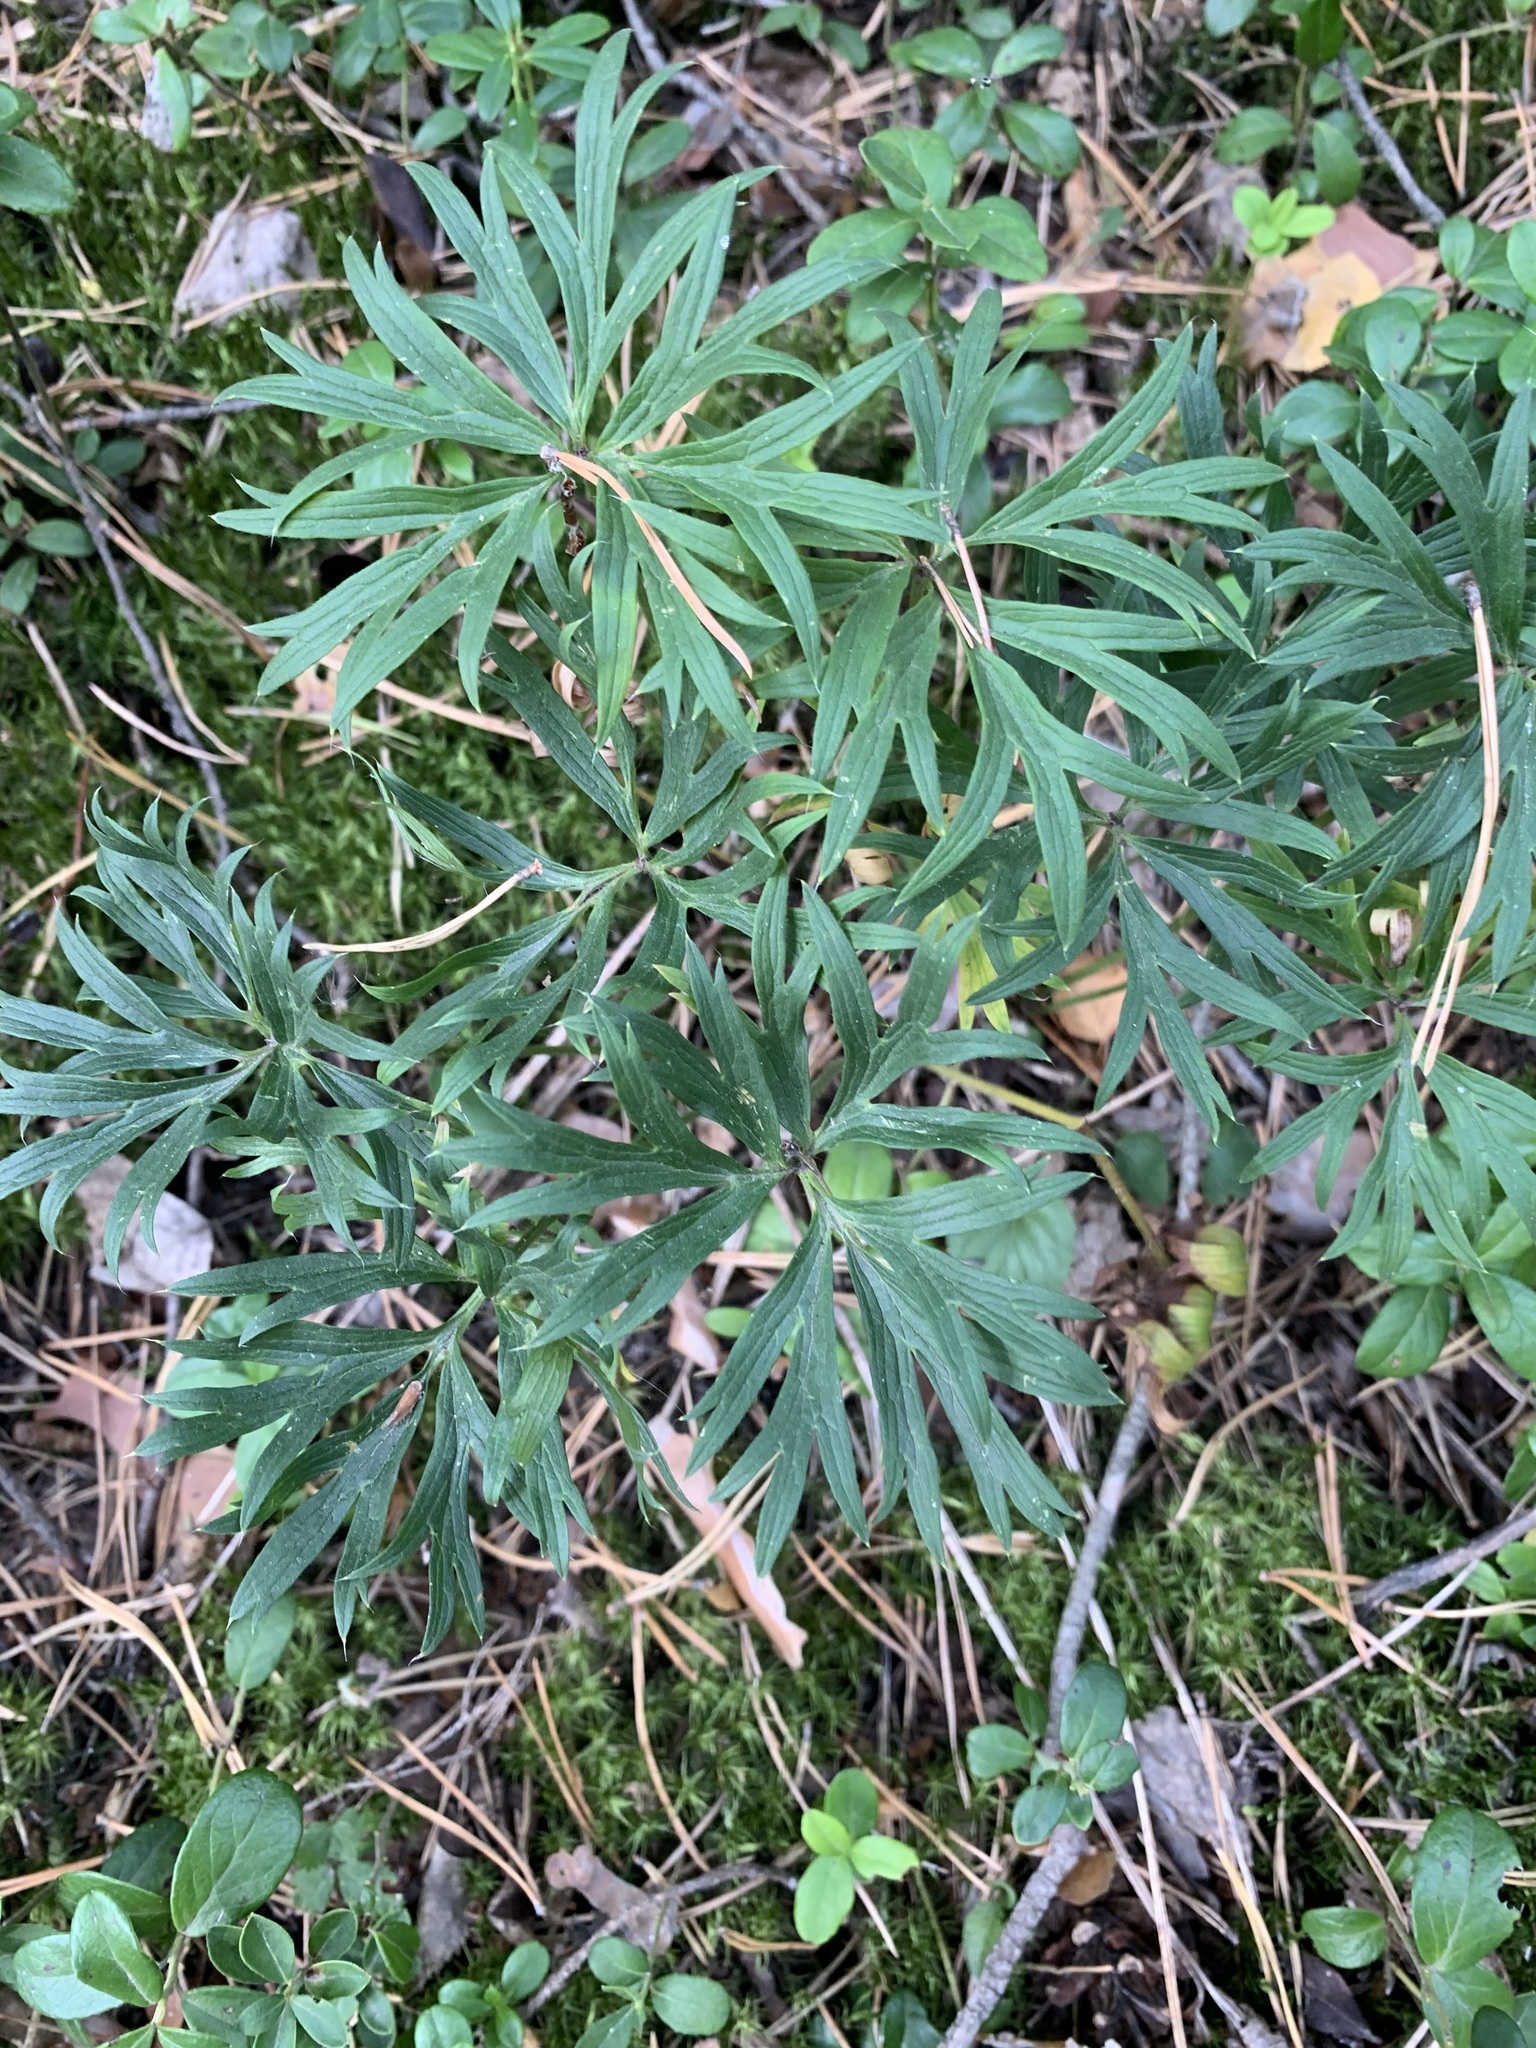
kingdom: Plantae
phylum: Tracheophyta
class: Magnoliopsida
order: Ranunculales
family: Ranunculaceae
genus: Pulsatilla
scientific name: Pulsatilla patens
